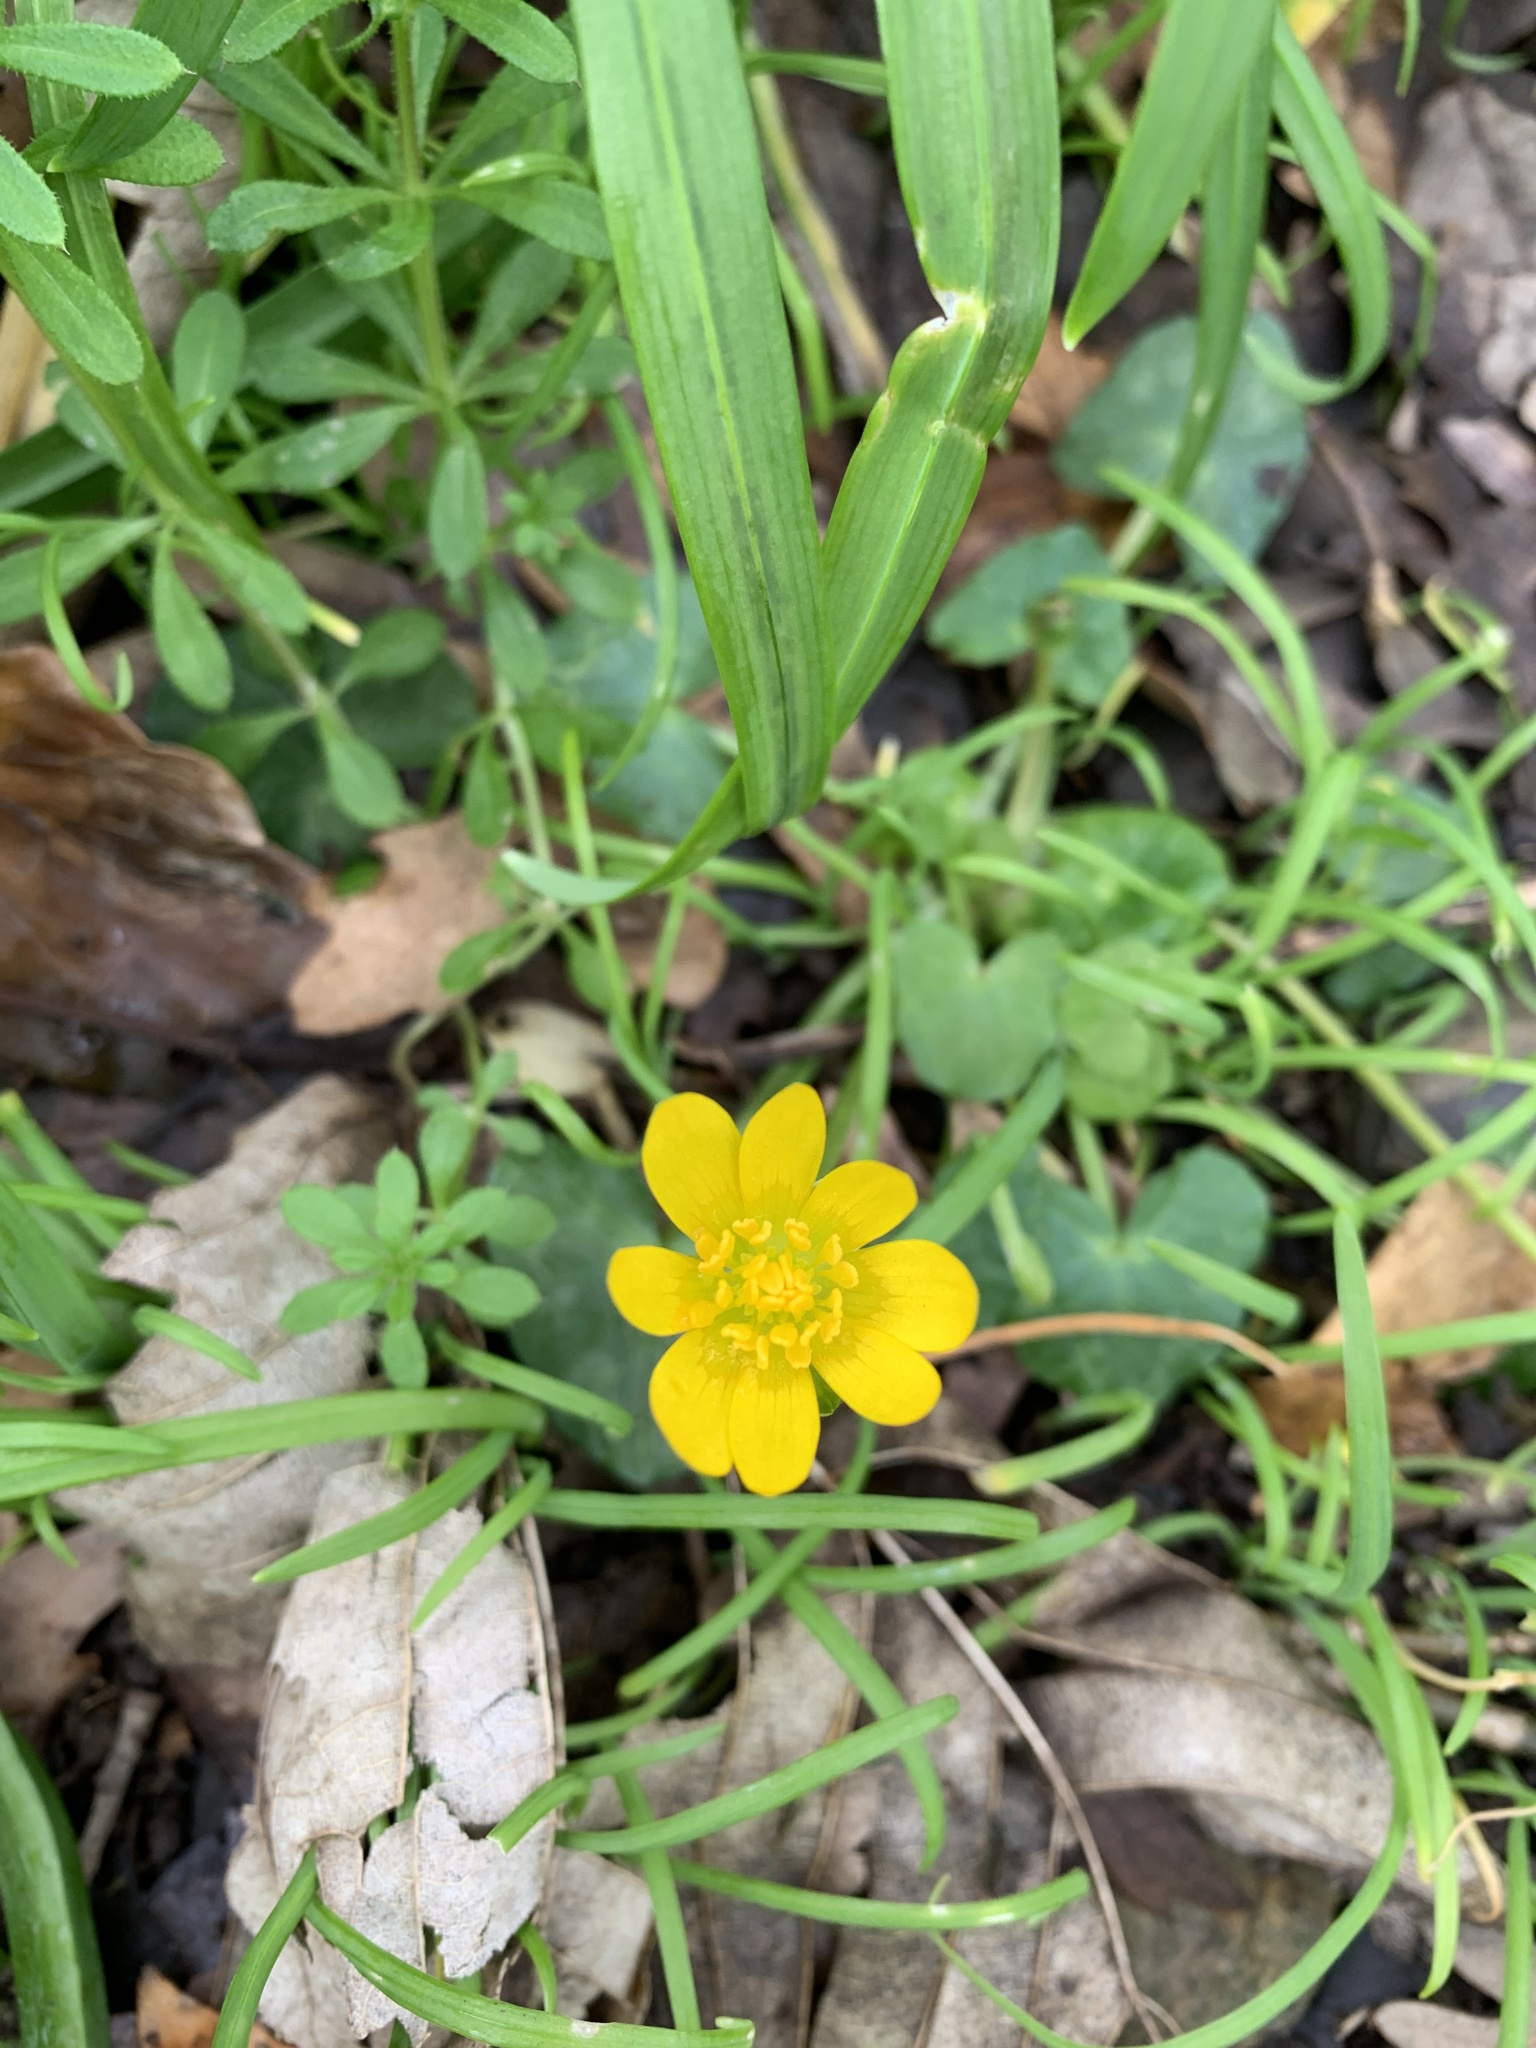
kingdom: Plantae
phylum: Tracheophyta
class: Magnoliopsida
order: Ranunculales
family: Ranunculaceae
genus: Ficaria
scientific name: Ficaria verna
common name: Lesser celandine
